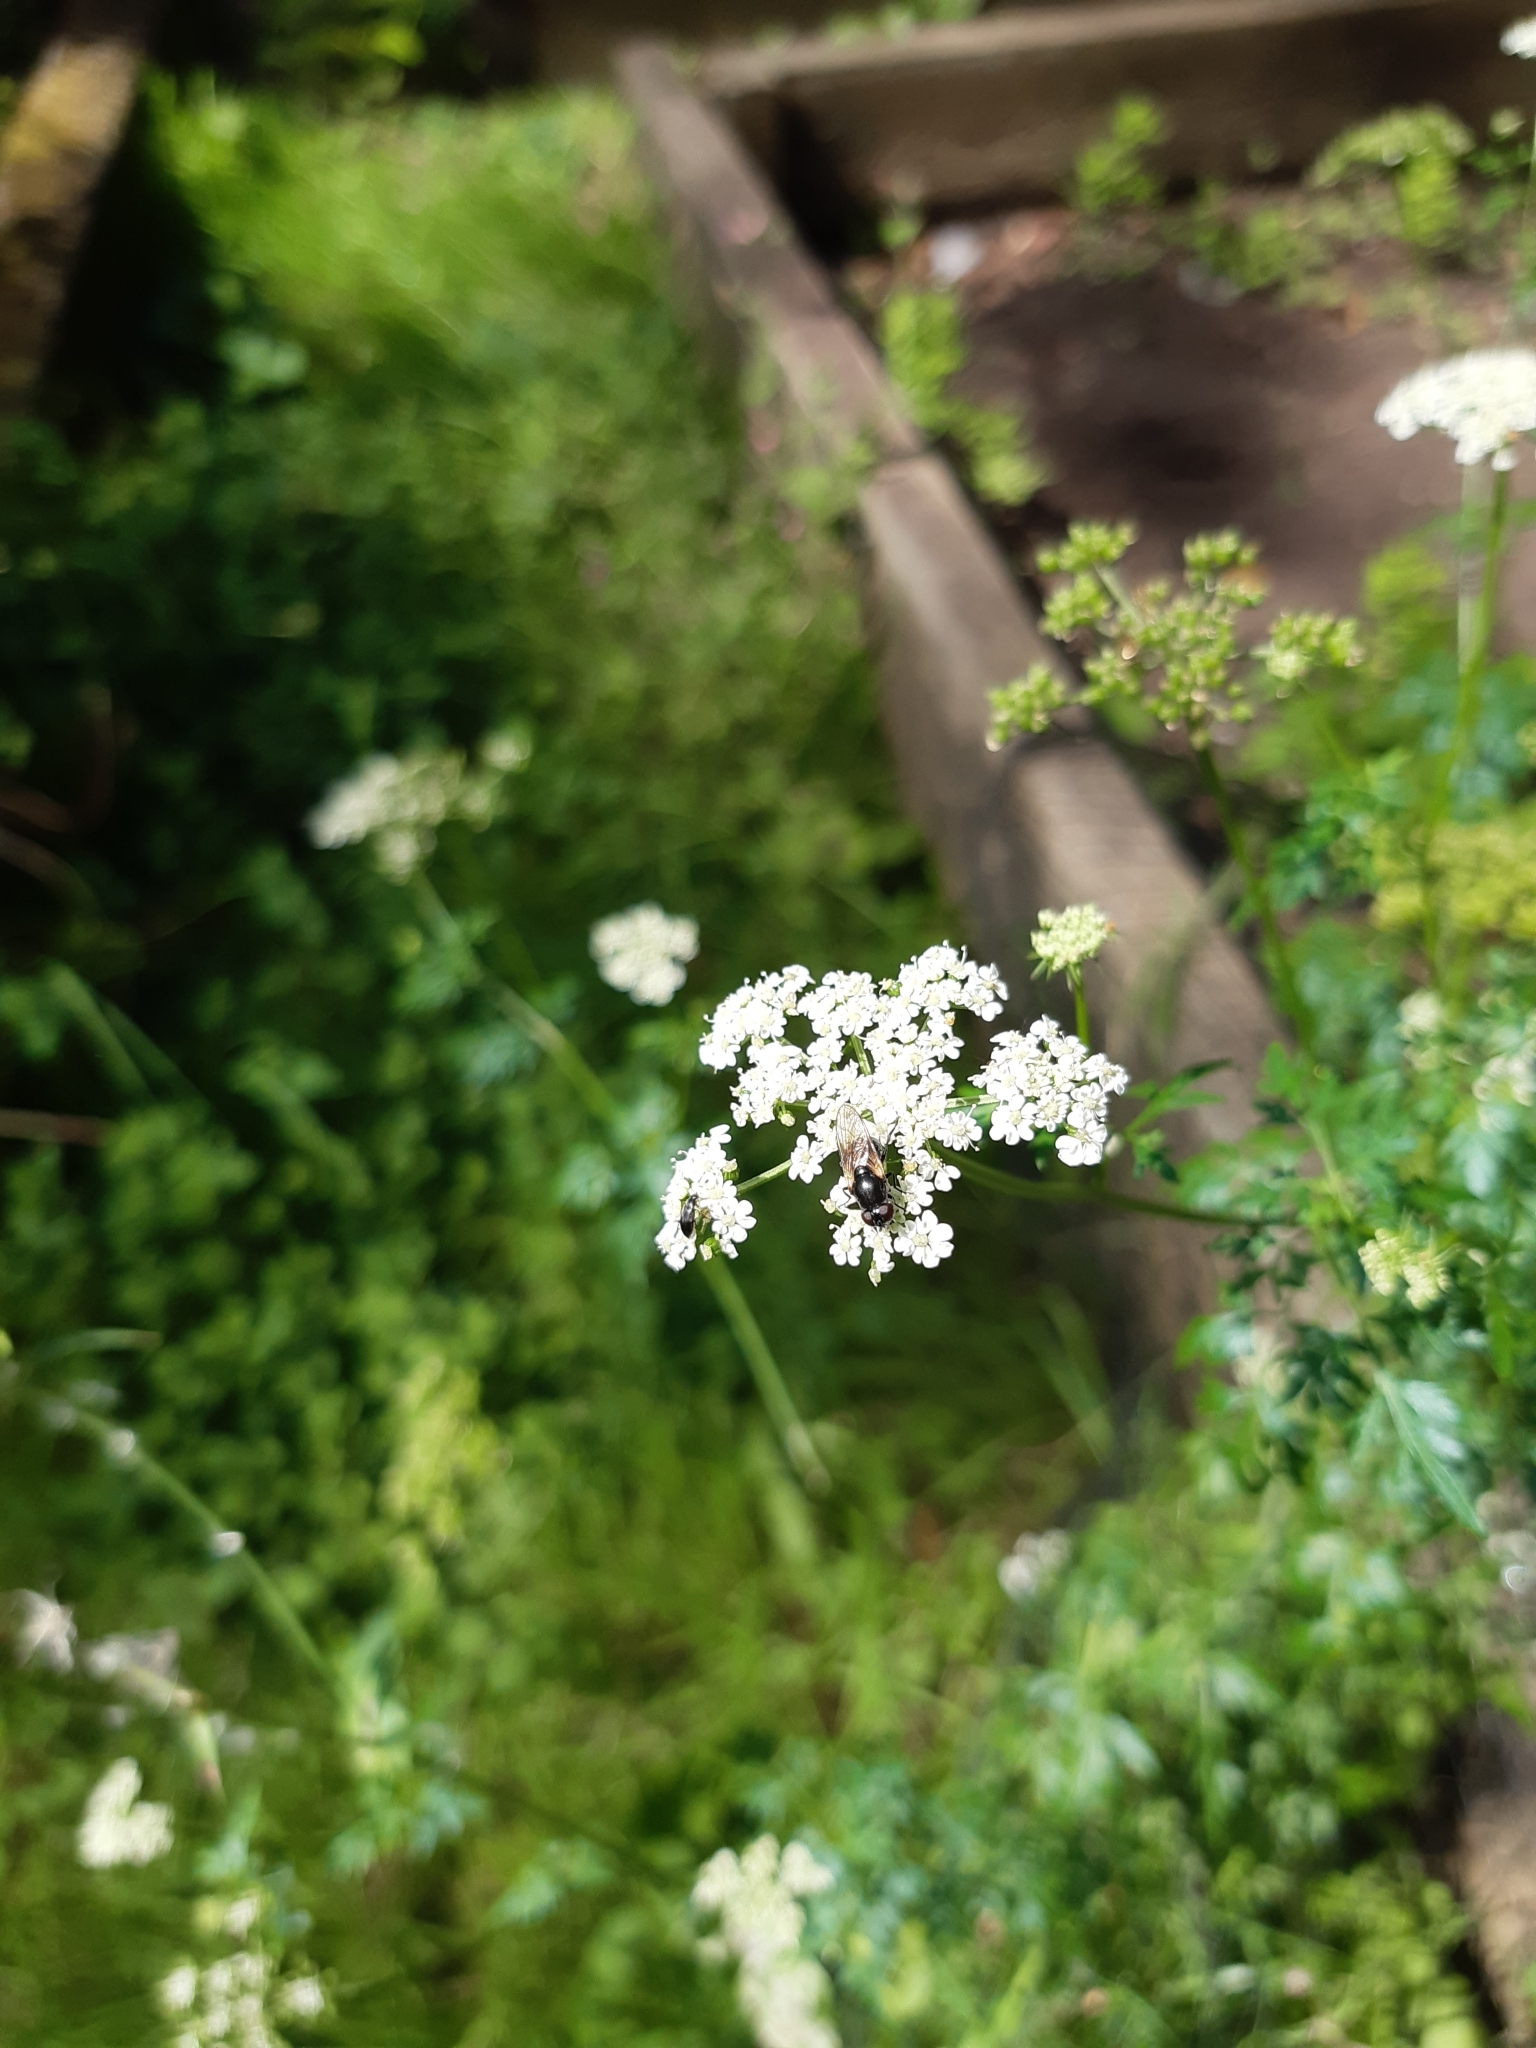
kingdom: Plantae
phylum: Tracheophyta
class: Magnoliopsida
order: Apiales
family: Apiaceae
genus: Conium
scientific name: Conium maculatum
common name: Hemlock
